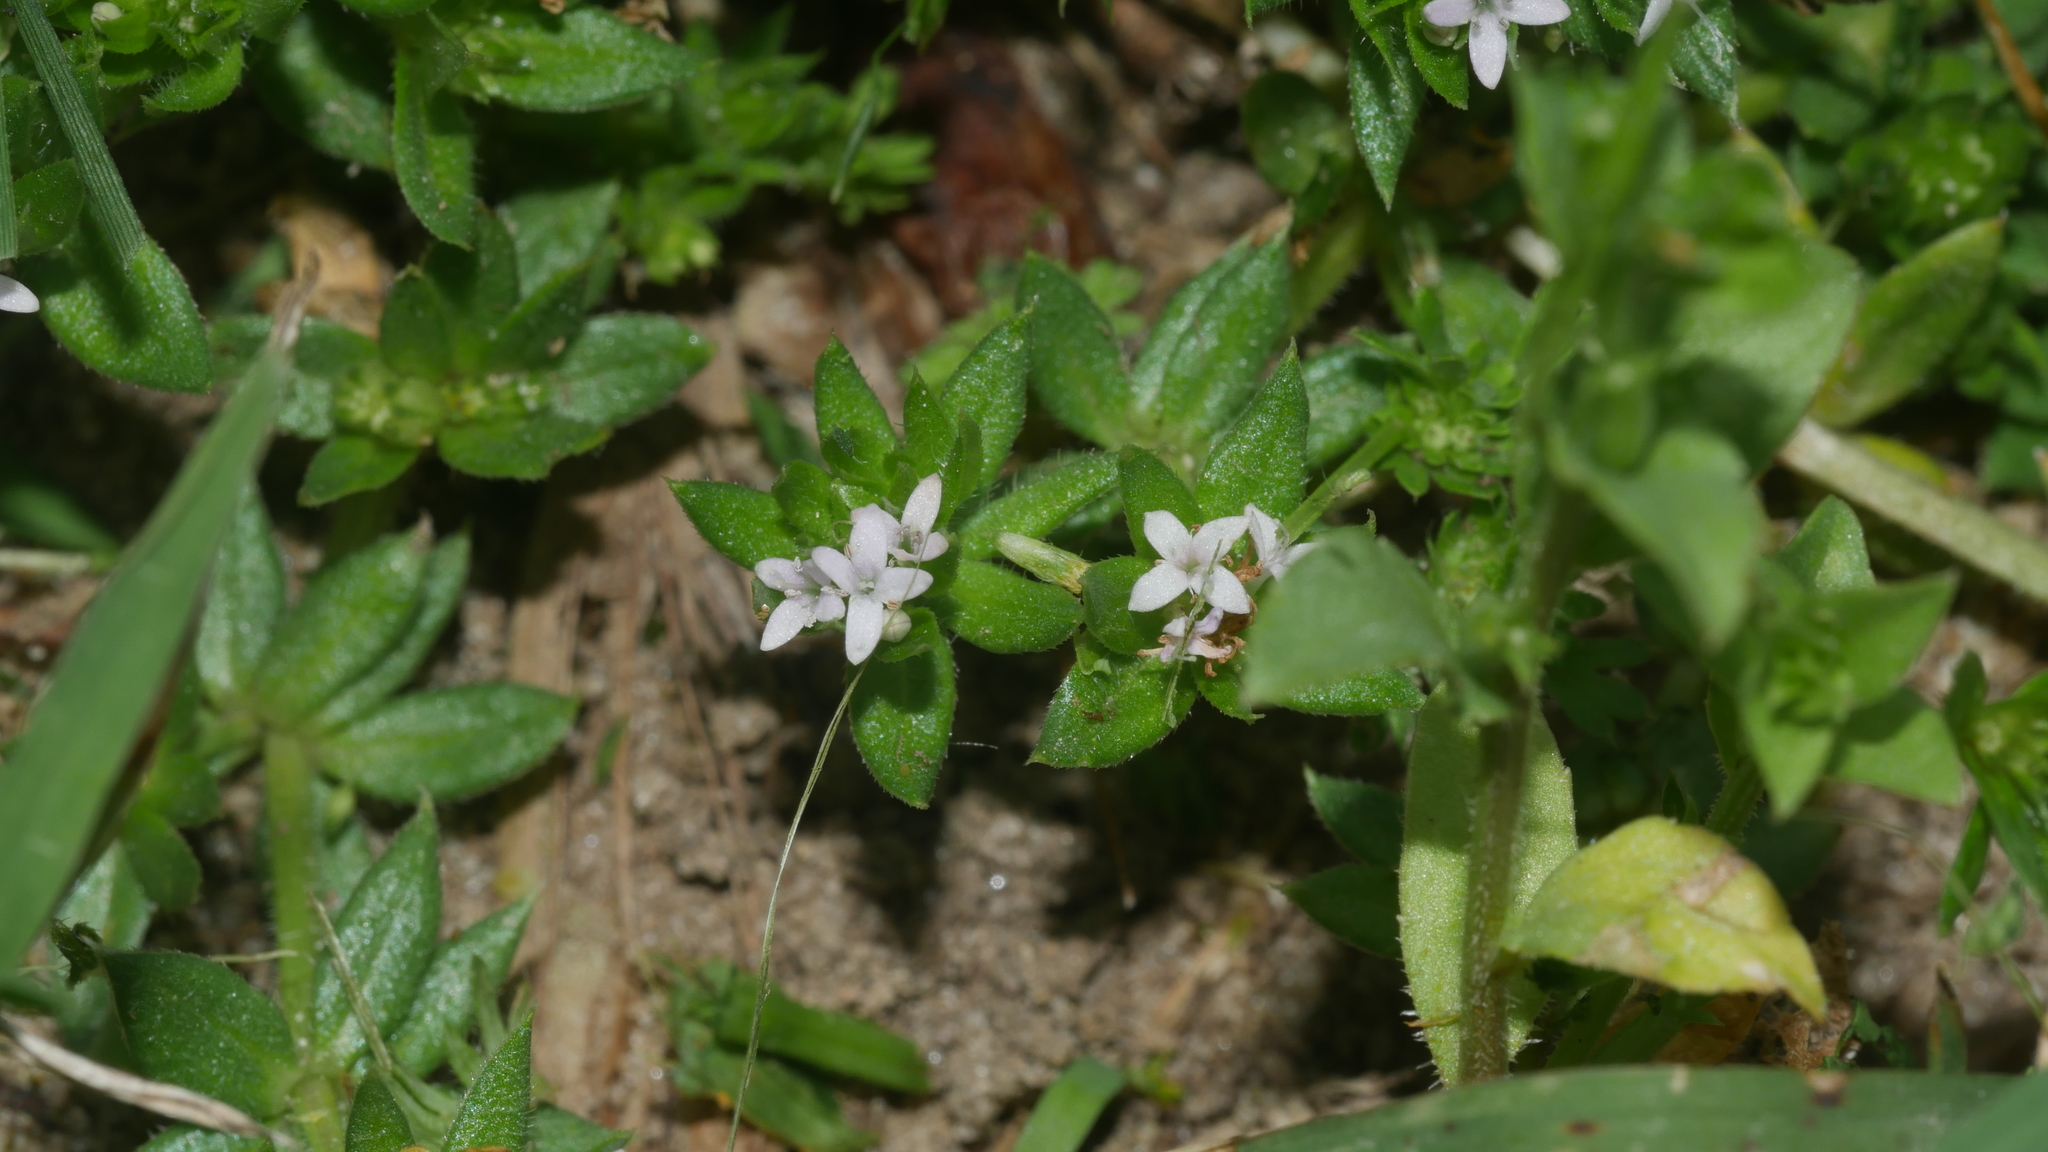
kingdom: Plantae
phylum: Tracheophyta
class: Magnoliopsida
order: Gentianales
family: Rubiaceae
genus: Sherardia
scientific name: Sherardia arvensis
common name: Field madder
